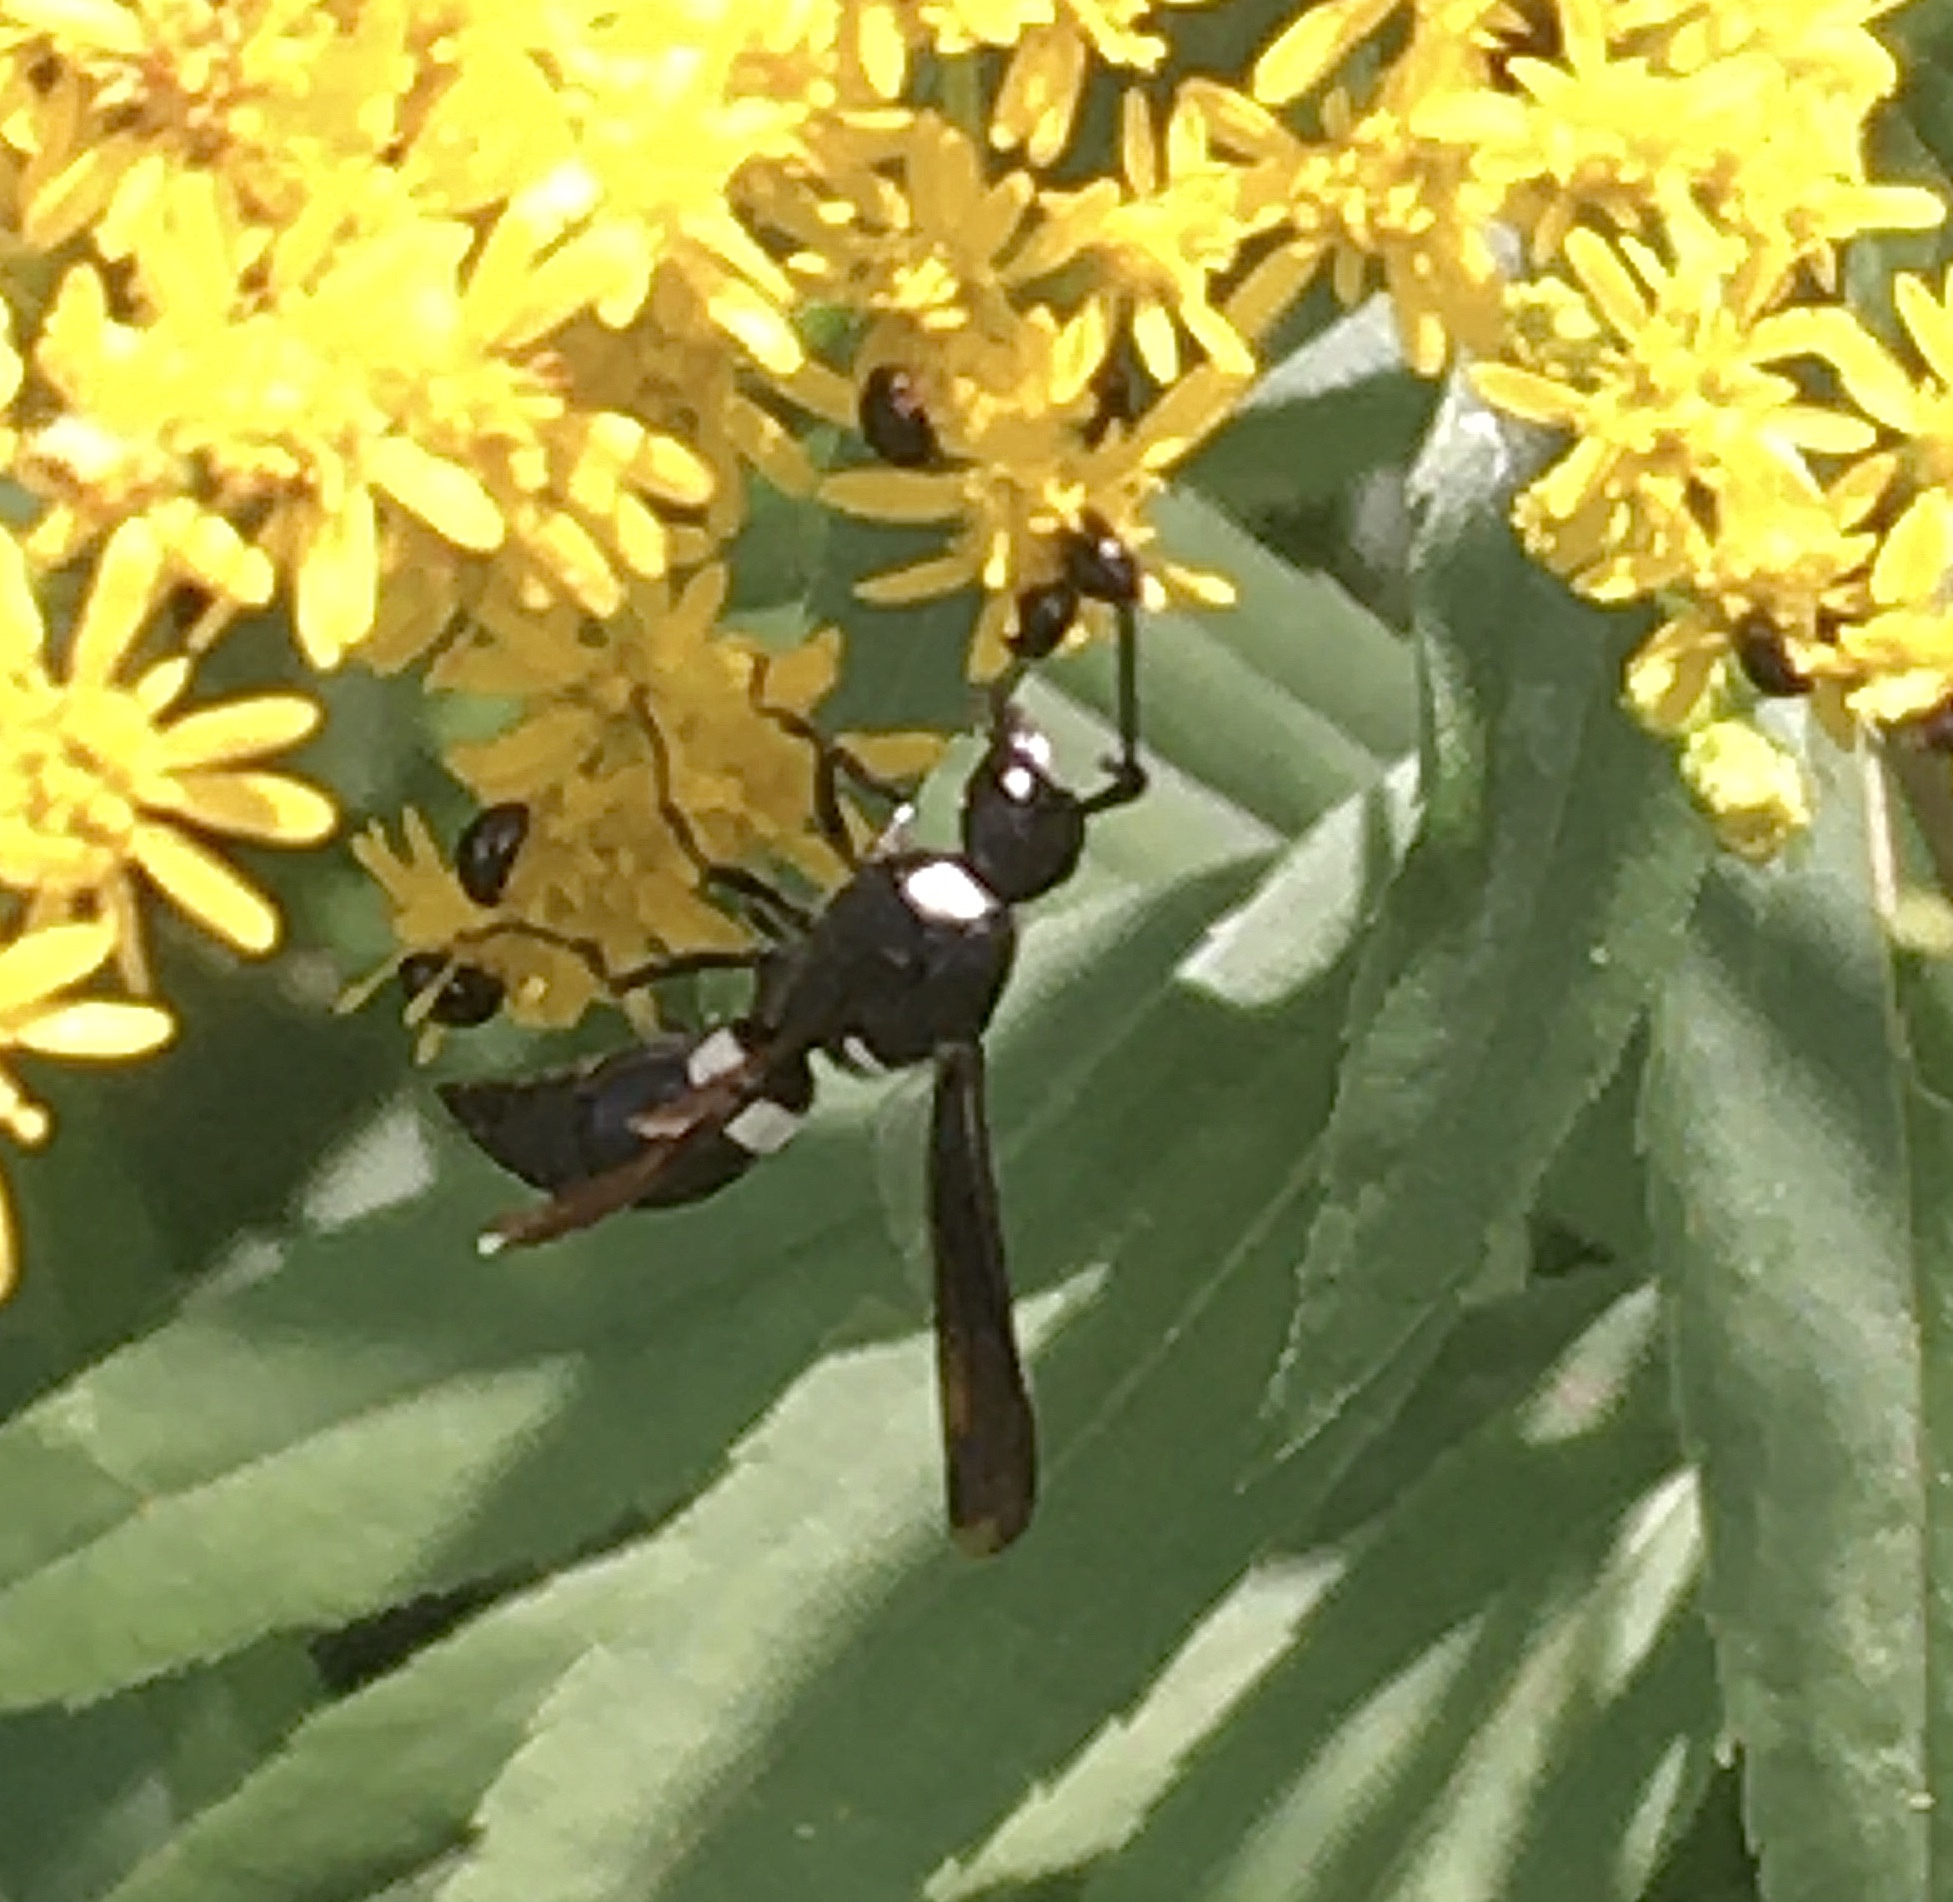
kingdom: Animalia
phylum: Arthropoda
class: Insecta
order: Hymenoptera
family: Eumenidae
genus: Monobia
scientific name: Monobia quadridens
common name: Four-toothed mason wasp
